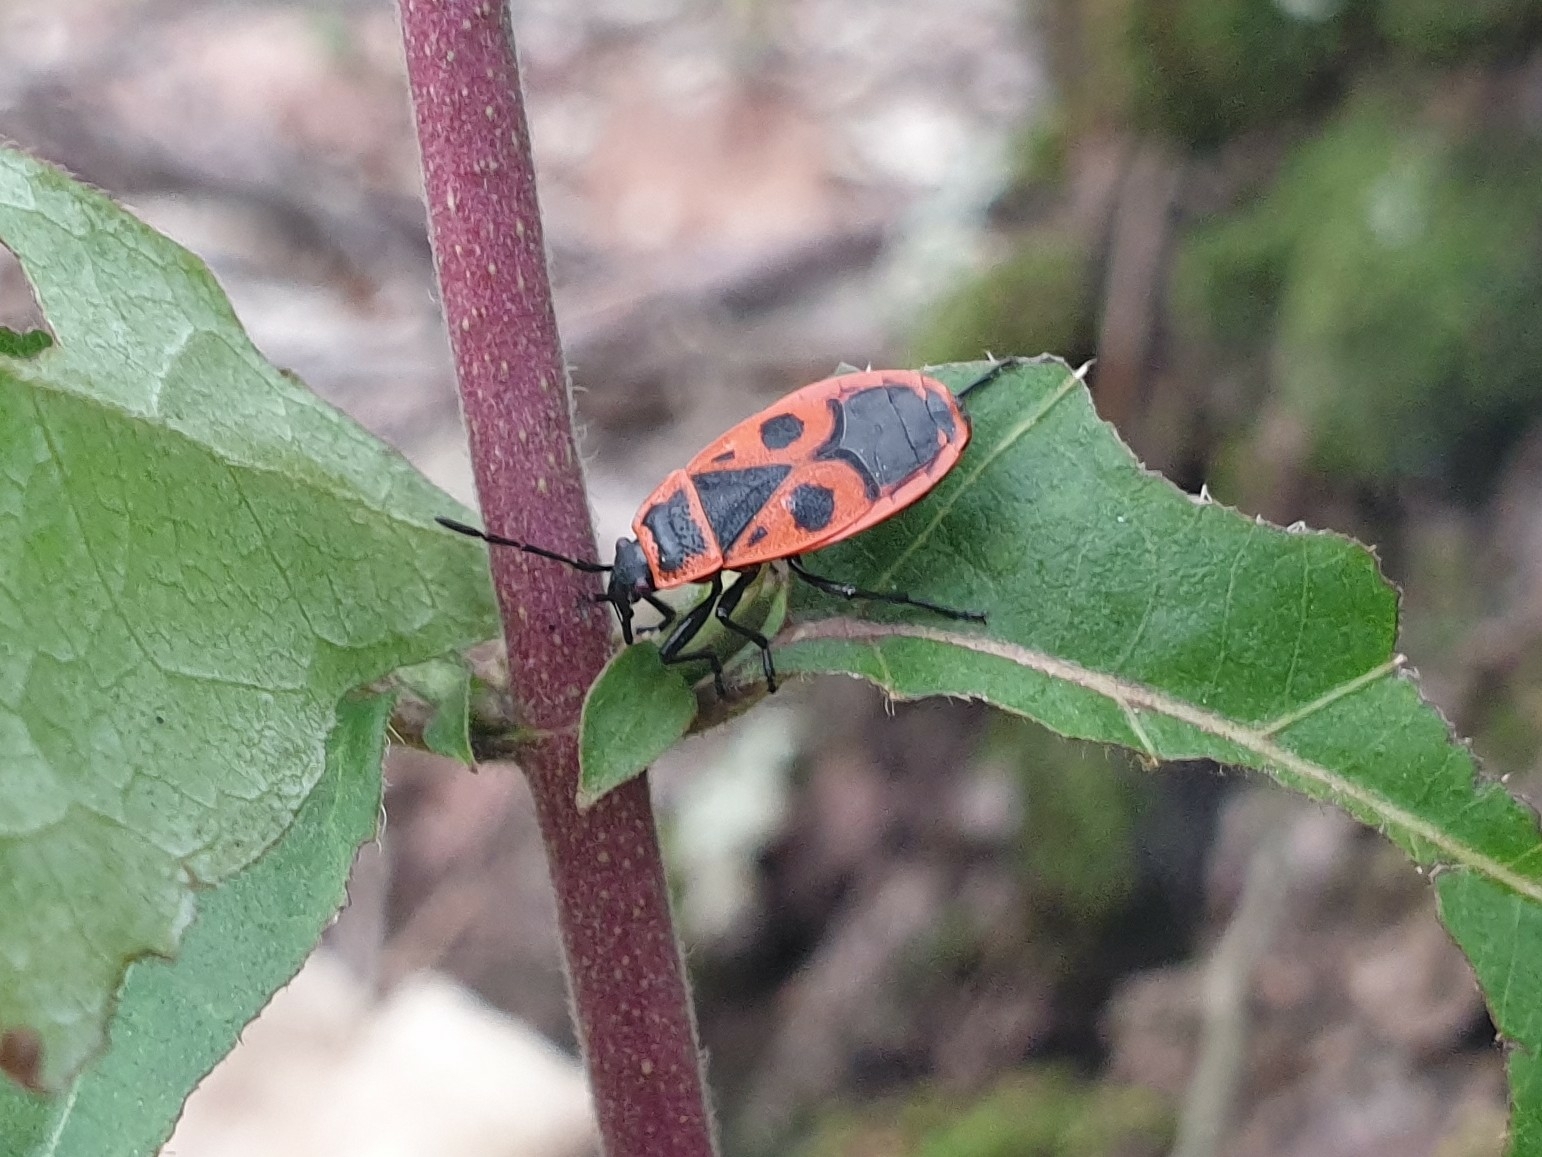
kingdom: Animalia
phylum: Arthropoda
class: Insecta
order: Hemiptera
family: Pyrrhocoridae
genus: Pyrrhocoris
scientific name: Pyrrhocoris apterus
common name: Firebug
